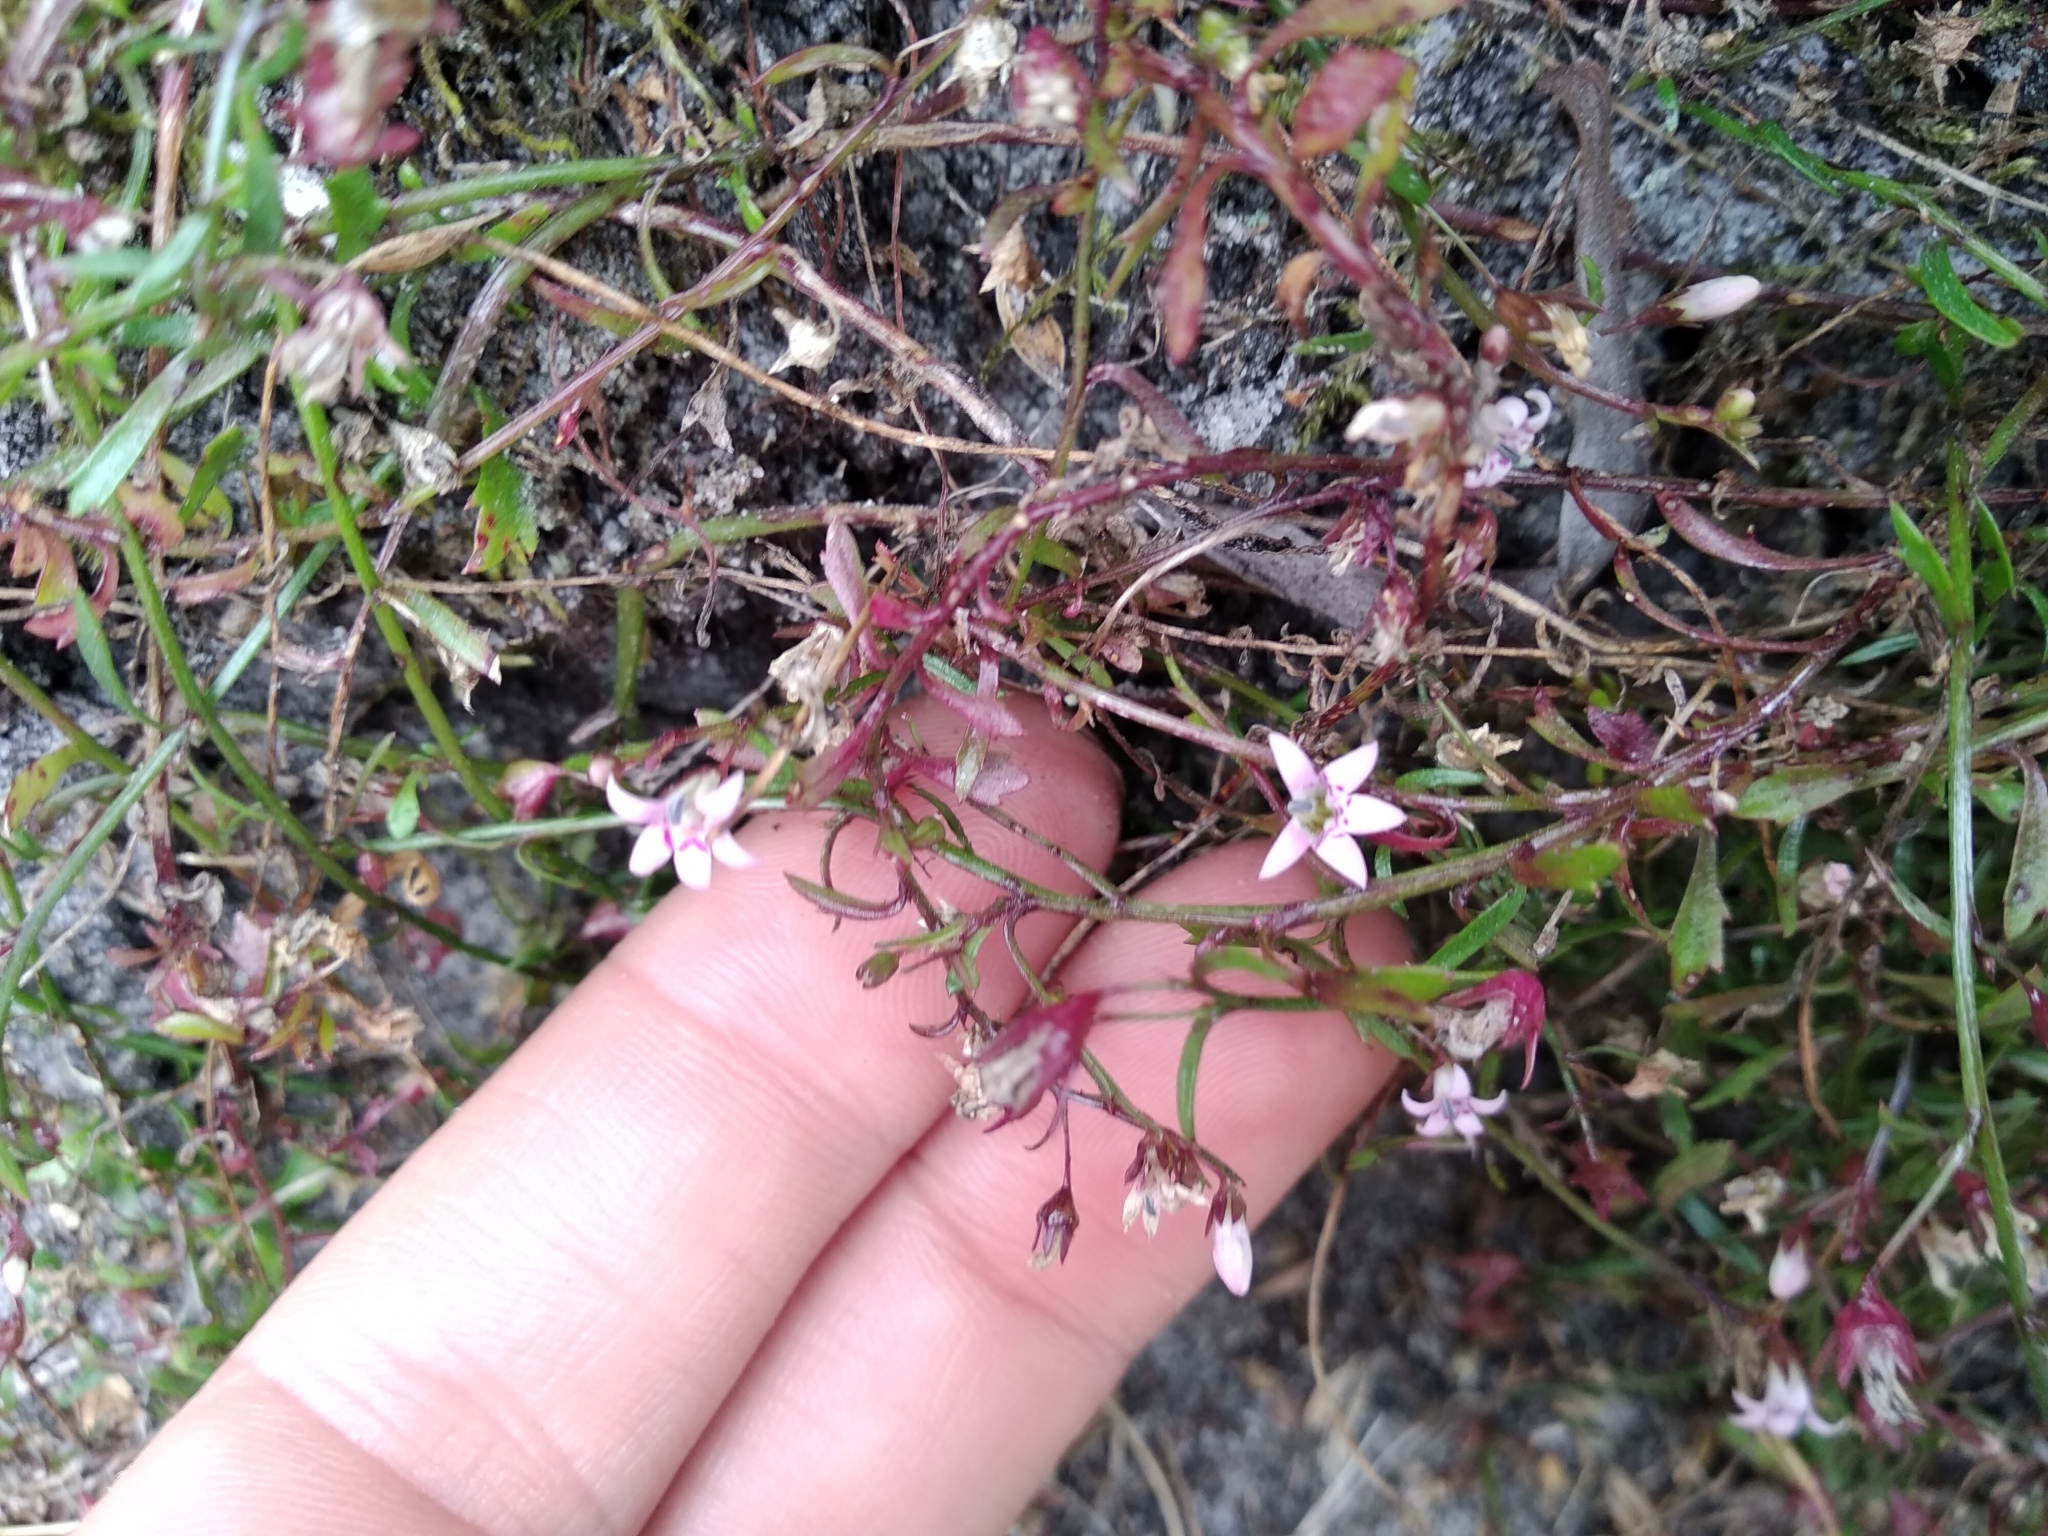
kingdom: Plantae
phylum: Tracheophyta
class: Magnoliopsida
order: Asterales
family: Campanulaceae
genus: Lobelia
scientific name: Lobelia eckloniana
